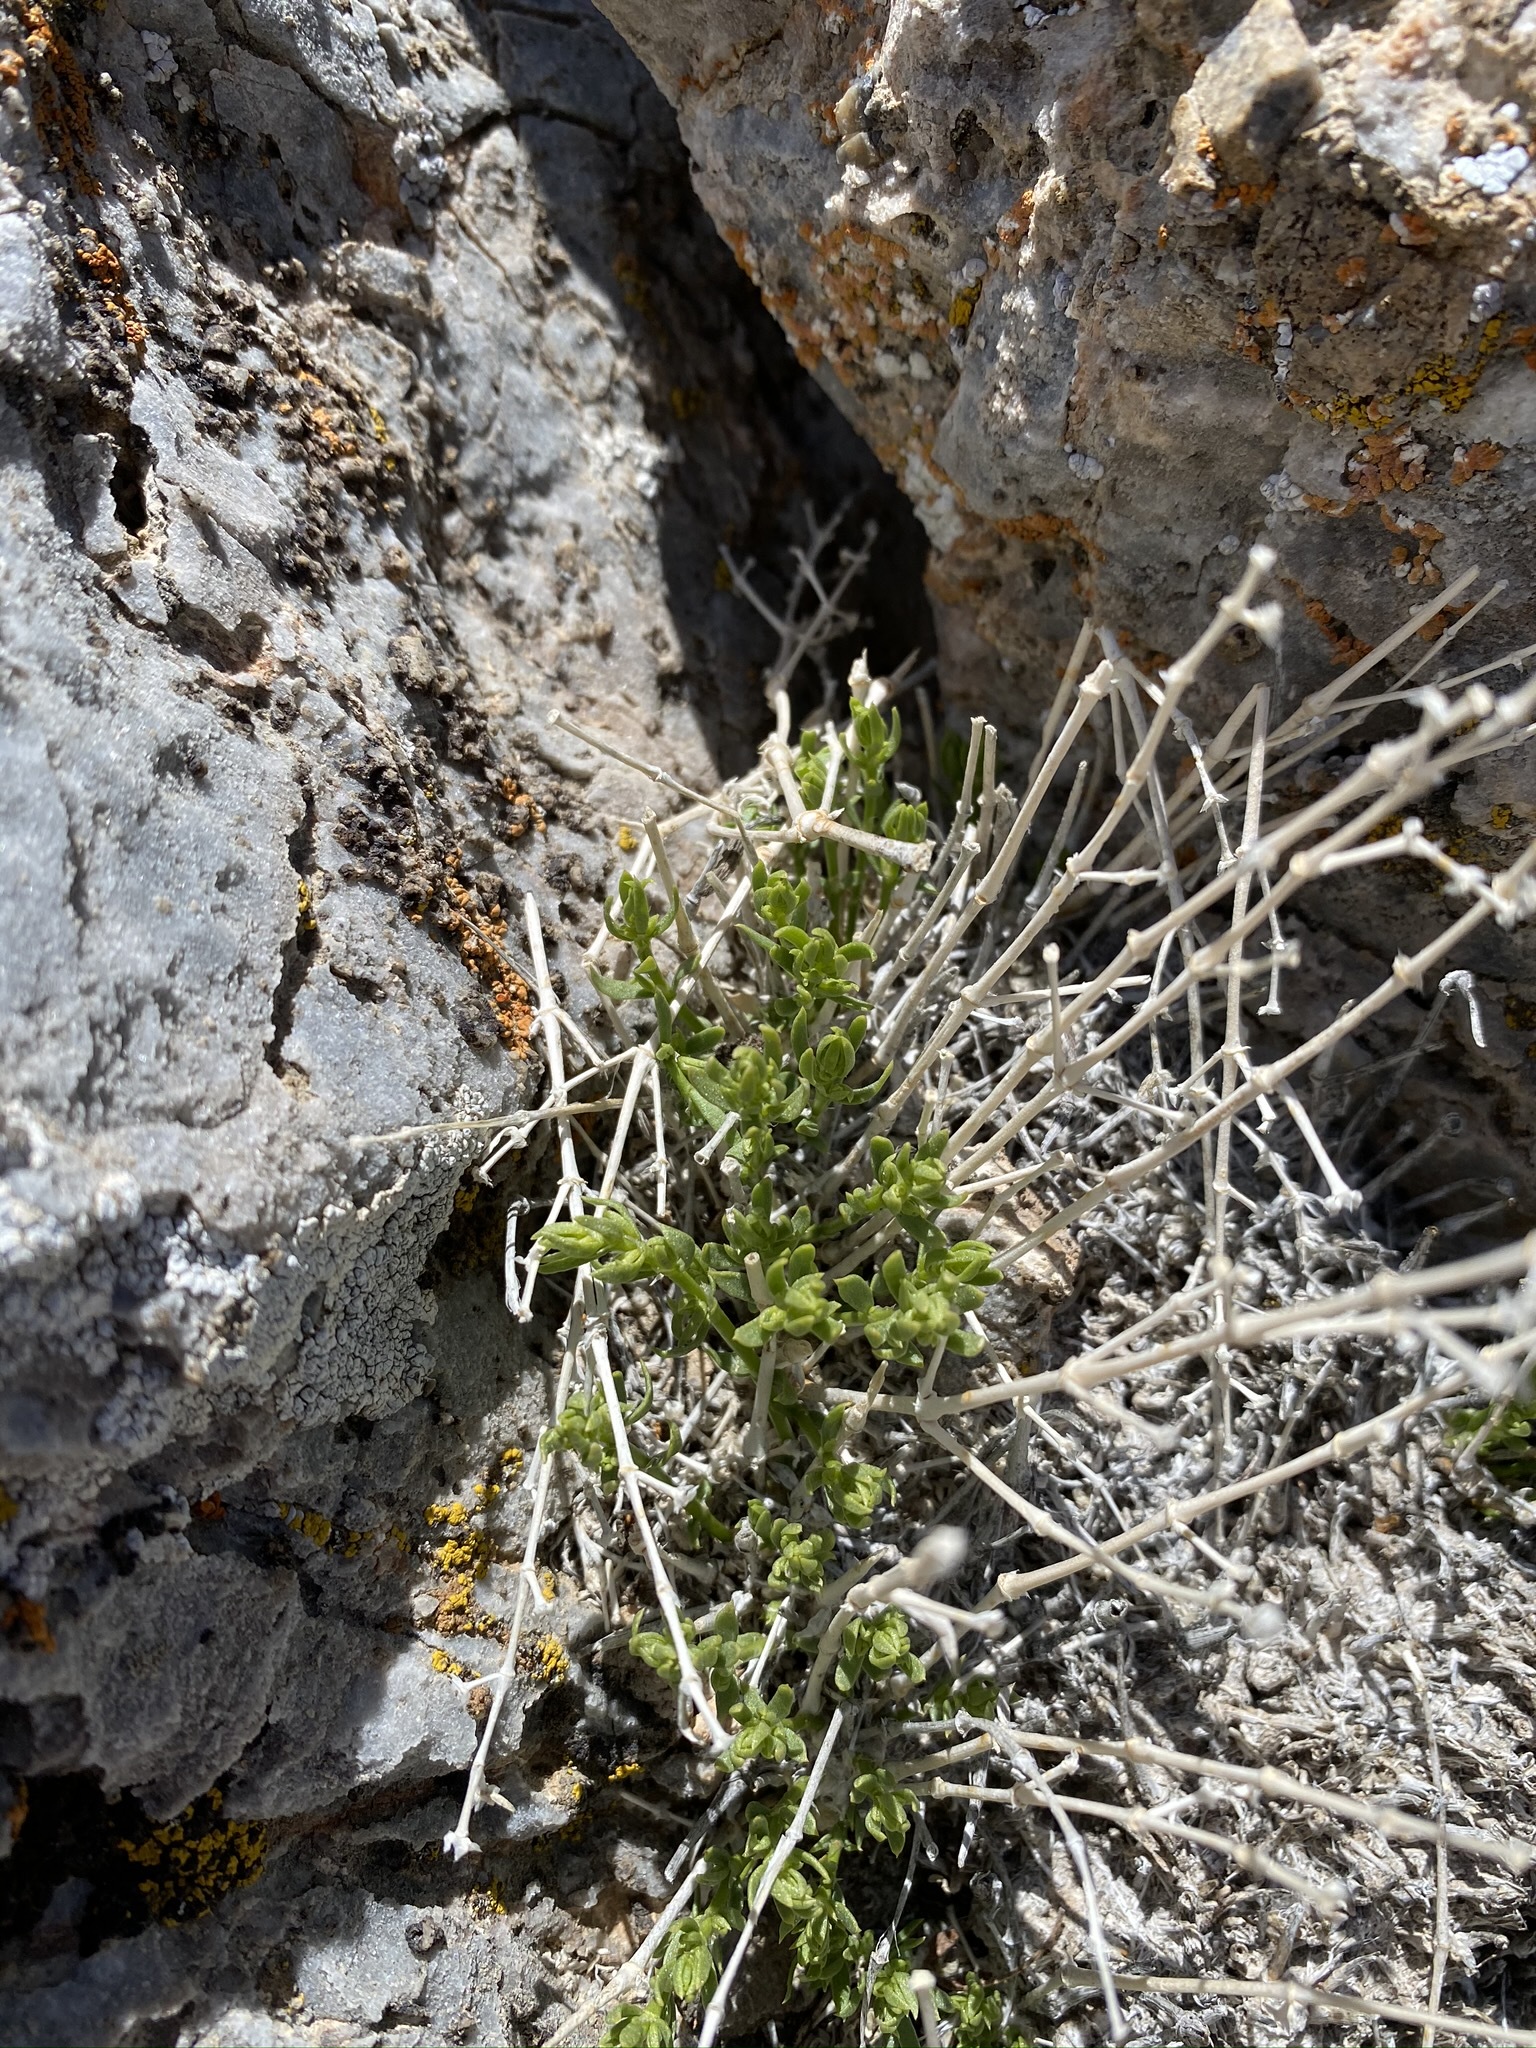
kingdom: Plantae
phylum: Tracheophyta
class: Magnoliopsida
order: Caryophyllales
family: Caryophyllaceae
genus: Scopulophila
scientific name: Scopulophila rixfordii
